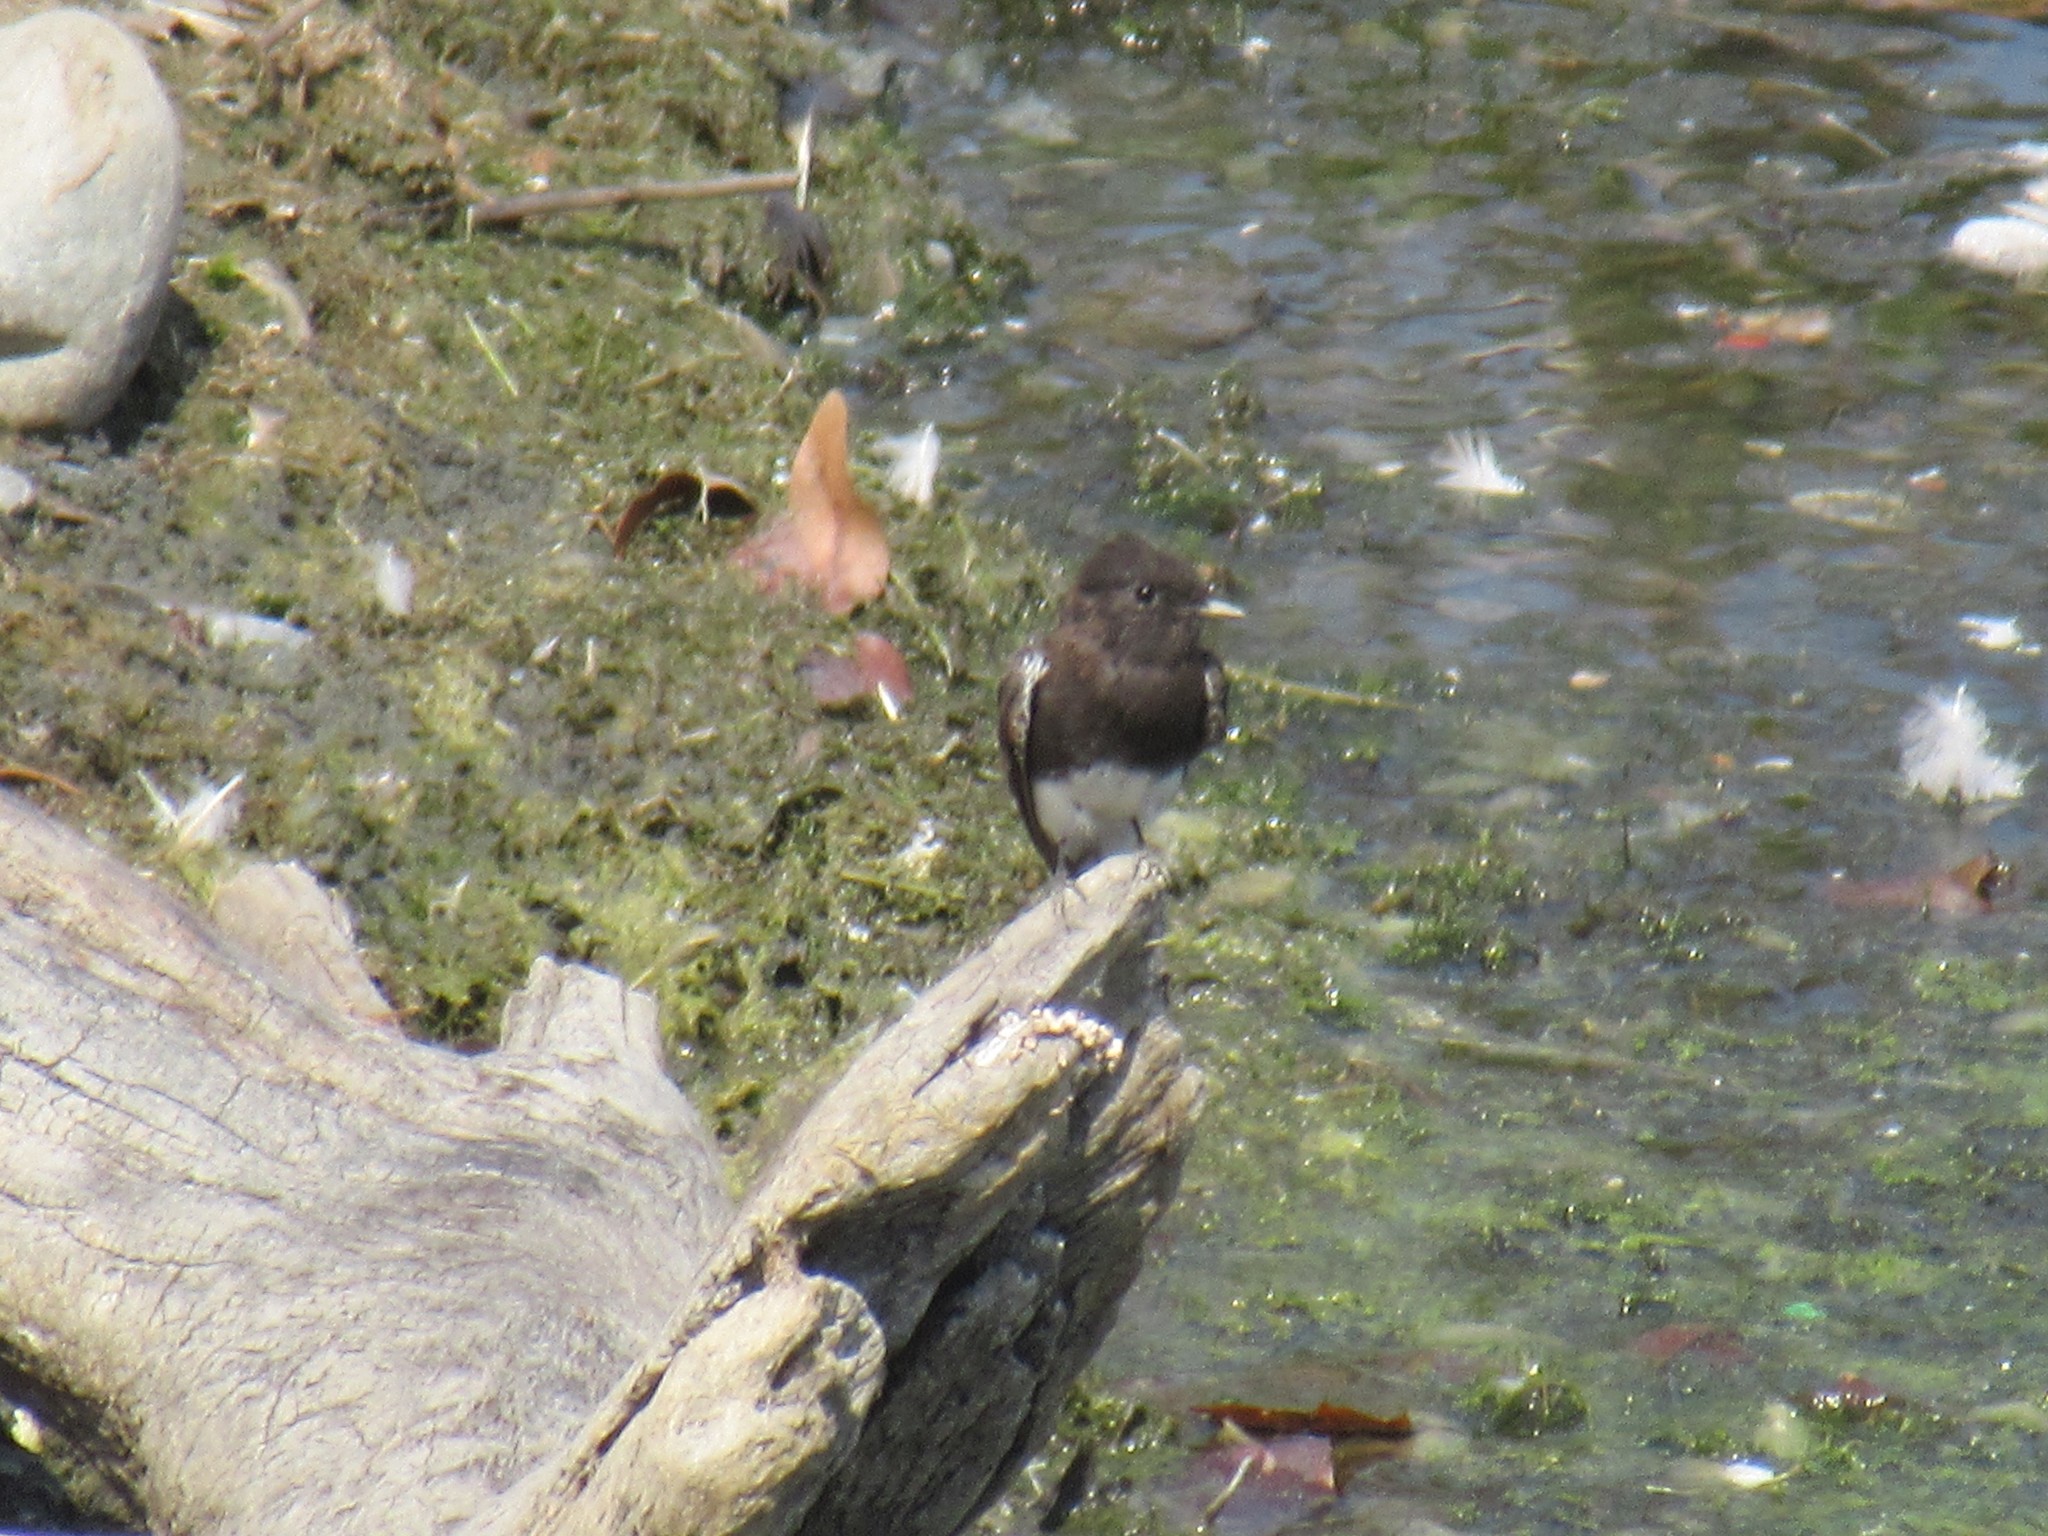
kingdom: Animalia
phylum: Chordata
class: Aves
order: Passeriformes
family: Tyrannidae
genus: Sayornis
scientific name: Sayornis nigricans
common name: Black phoebe
